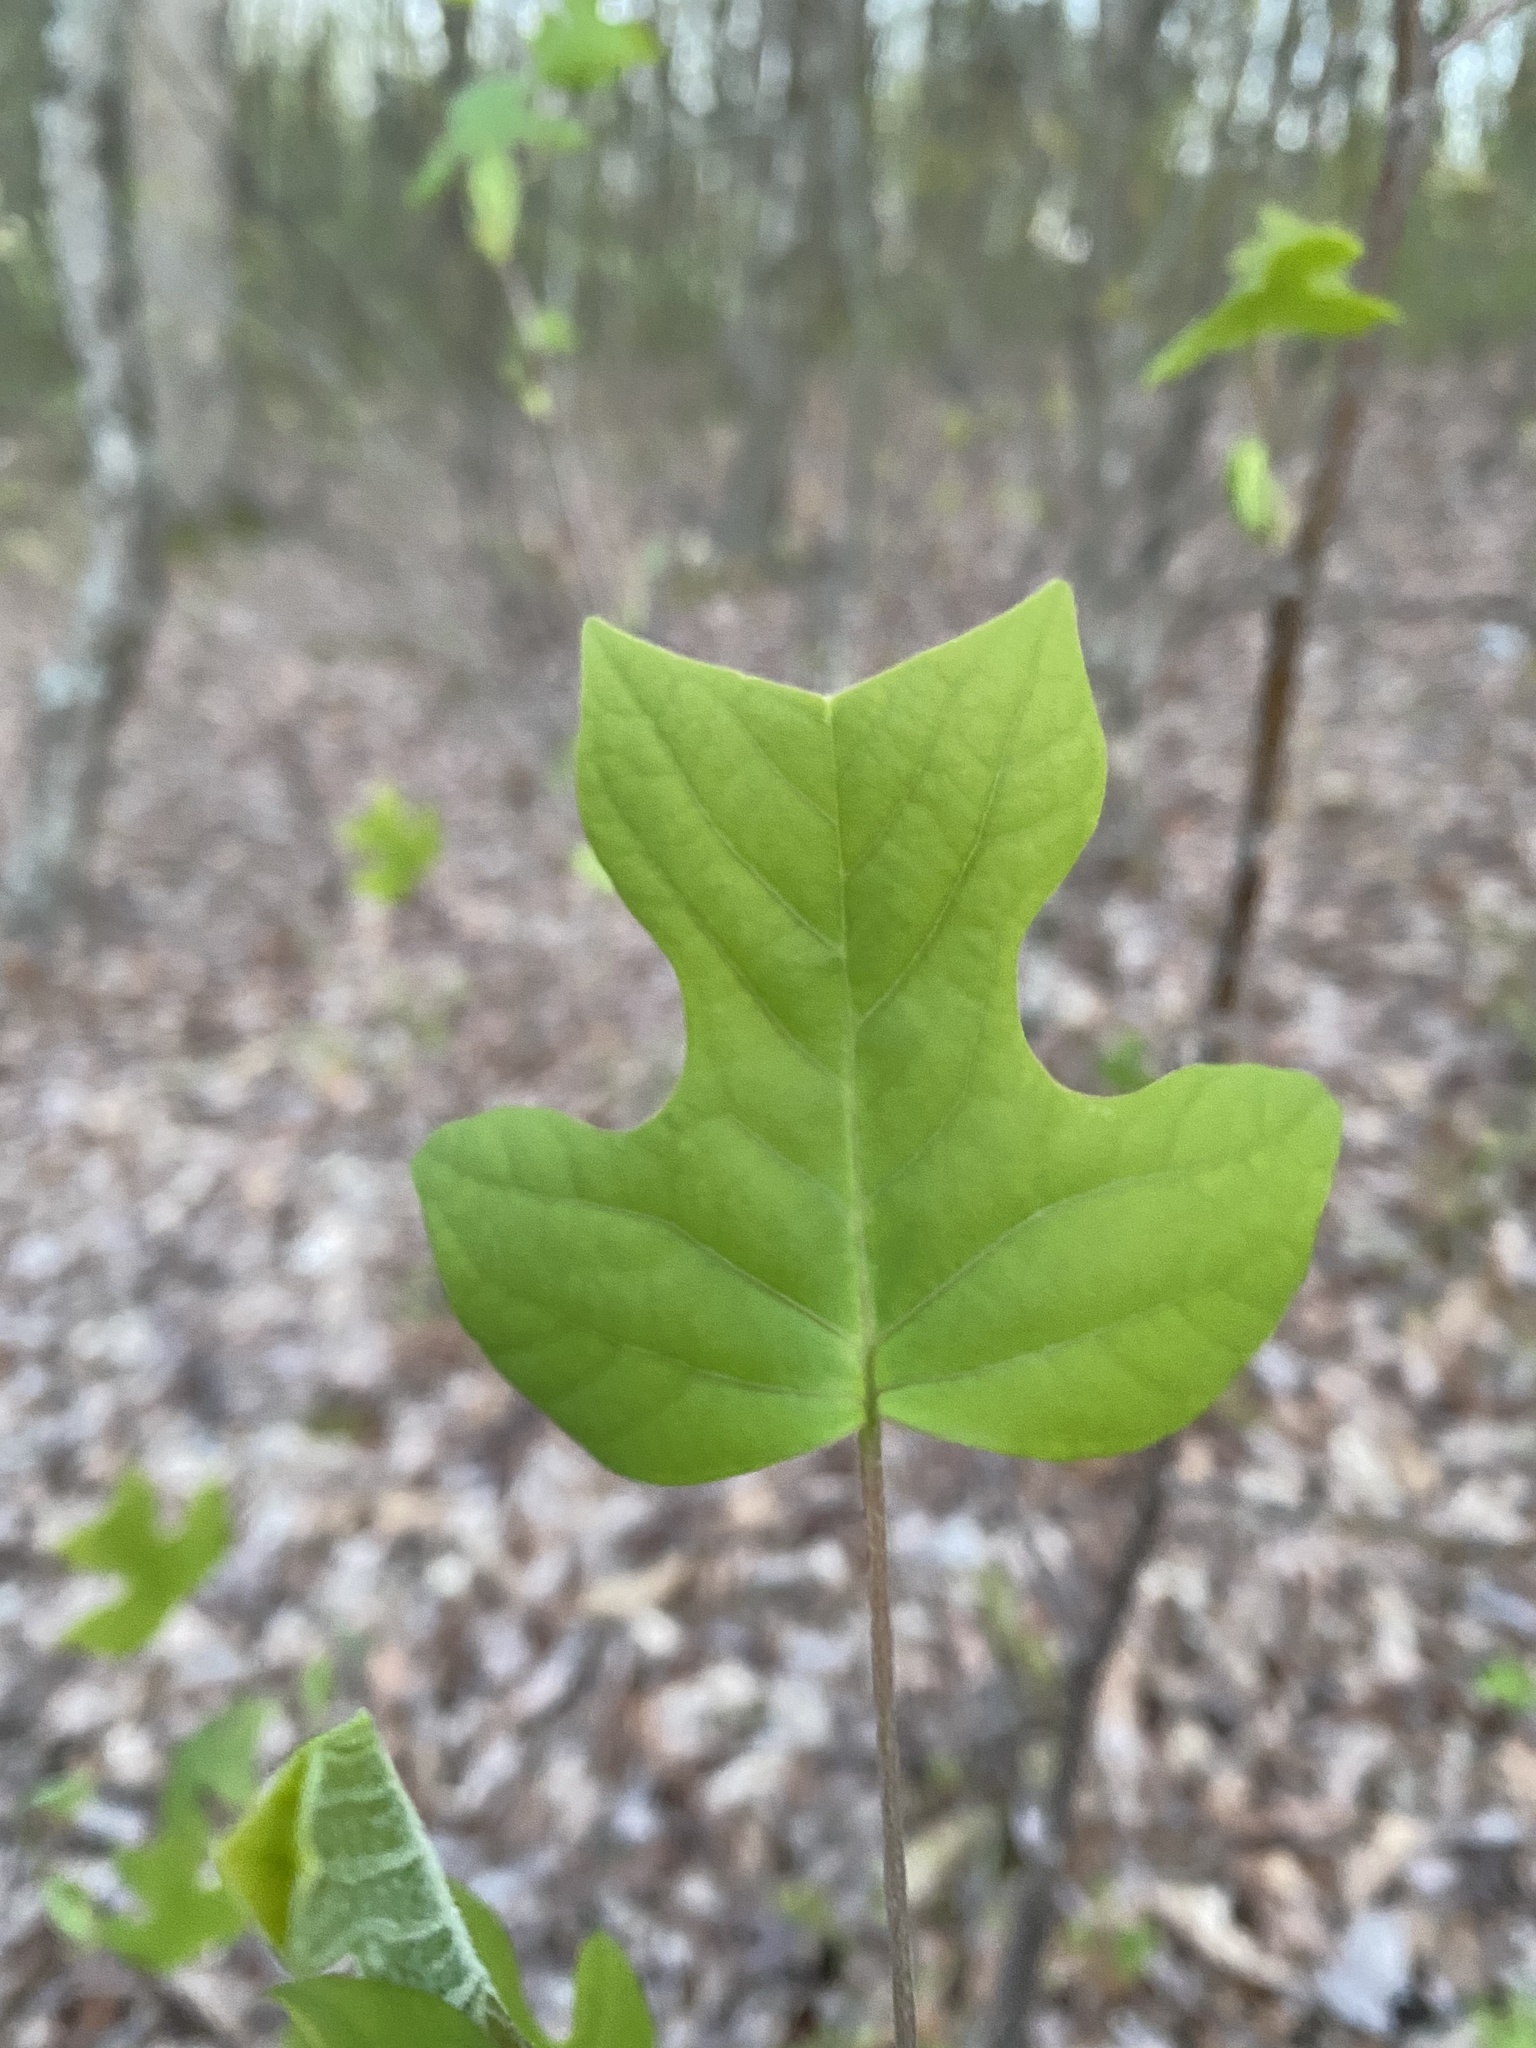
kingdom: Plantae
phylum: Tracheophyta
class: Magnoliopsida
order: Magnoliales
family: Magnoliaceae
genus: Liriodendron
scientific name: Liriodendron tulipifera
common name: Tulip tree
